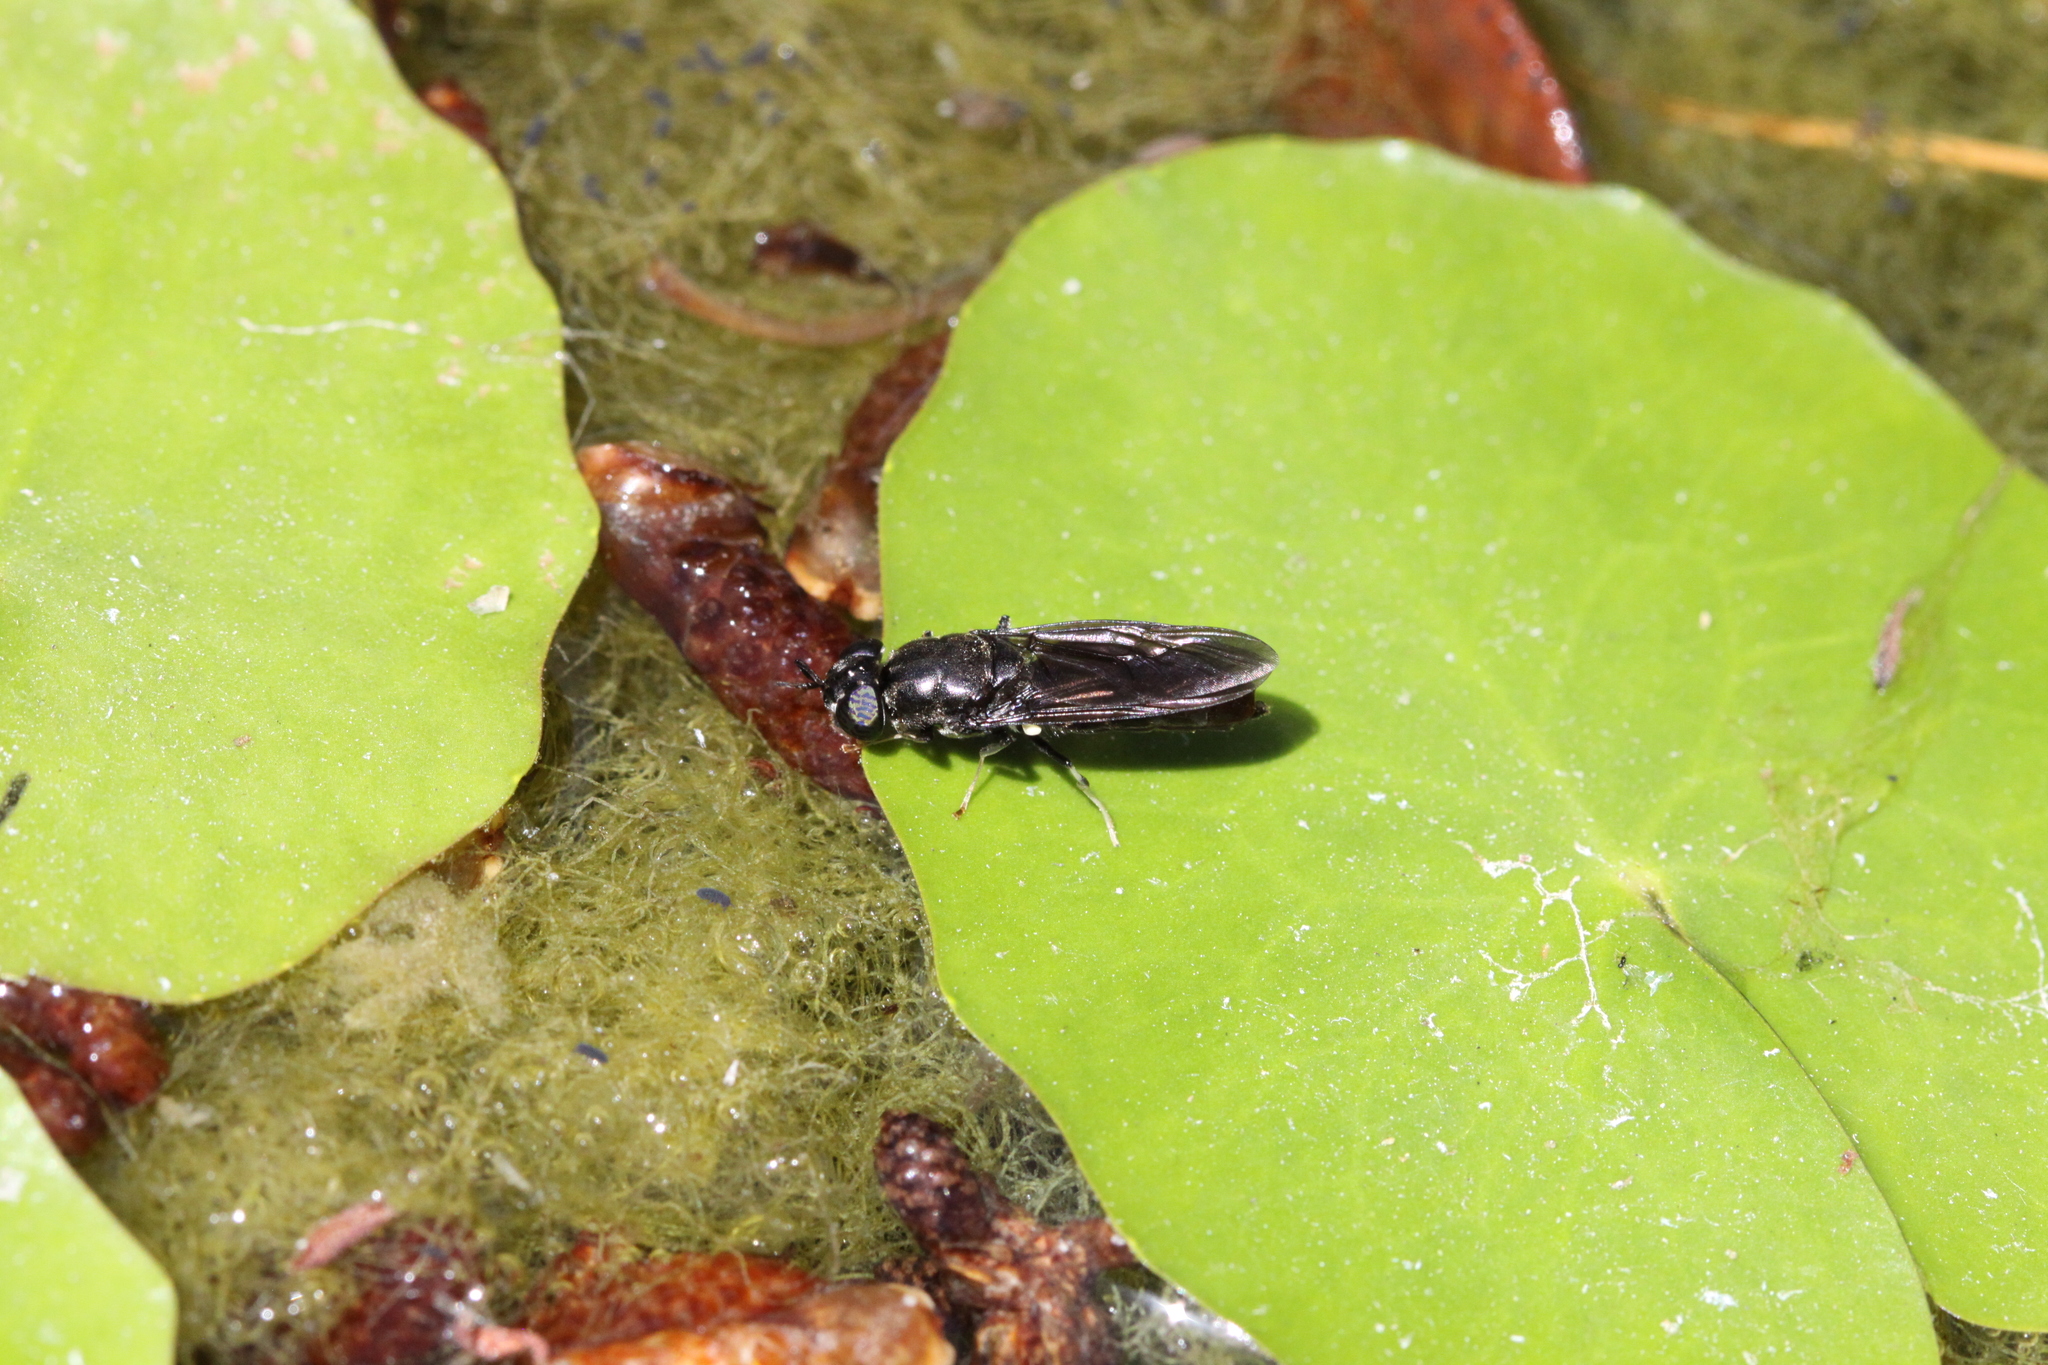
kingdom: Animalia
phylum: Arthropoda
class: Insecta
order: Diptera
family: Stratiomyidae
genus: Hermetia
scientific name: Hermetia illucens
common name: Black soldier fly
